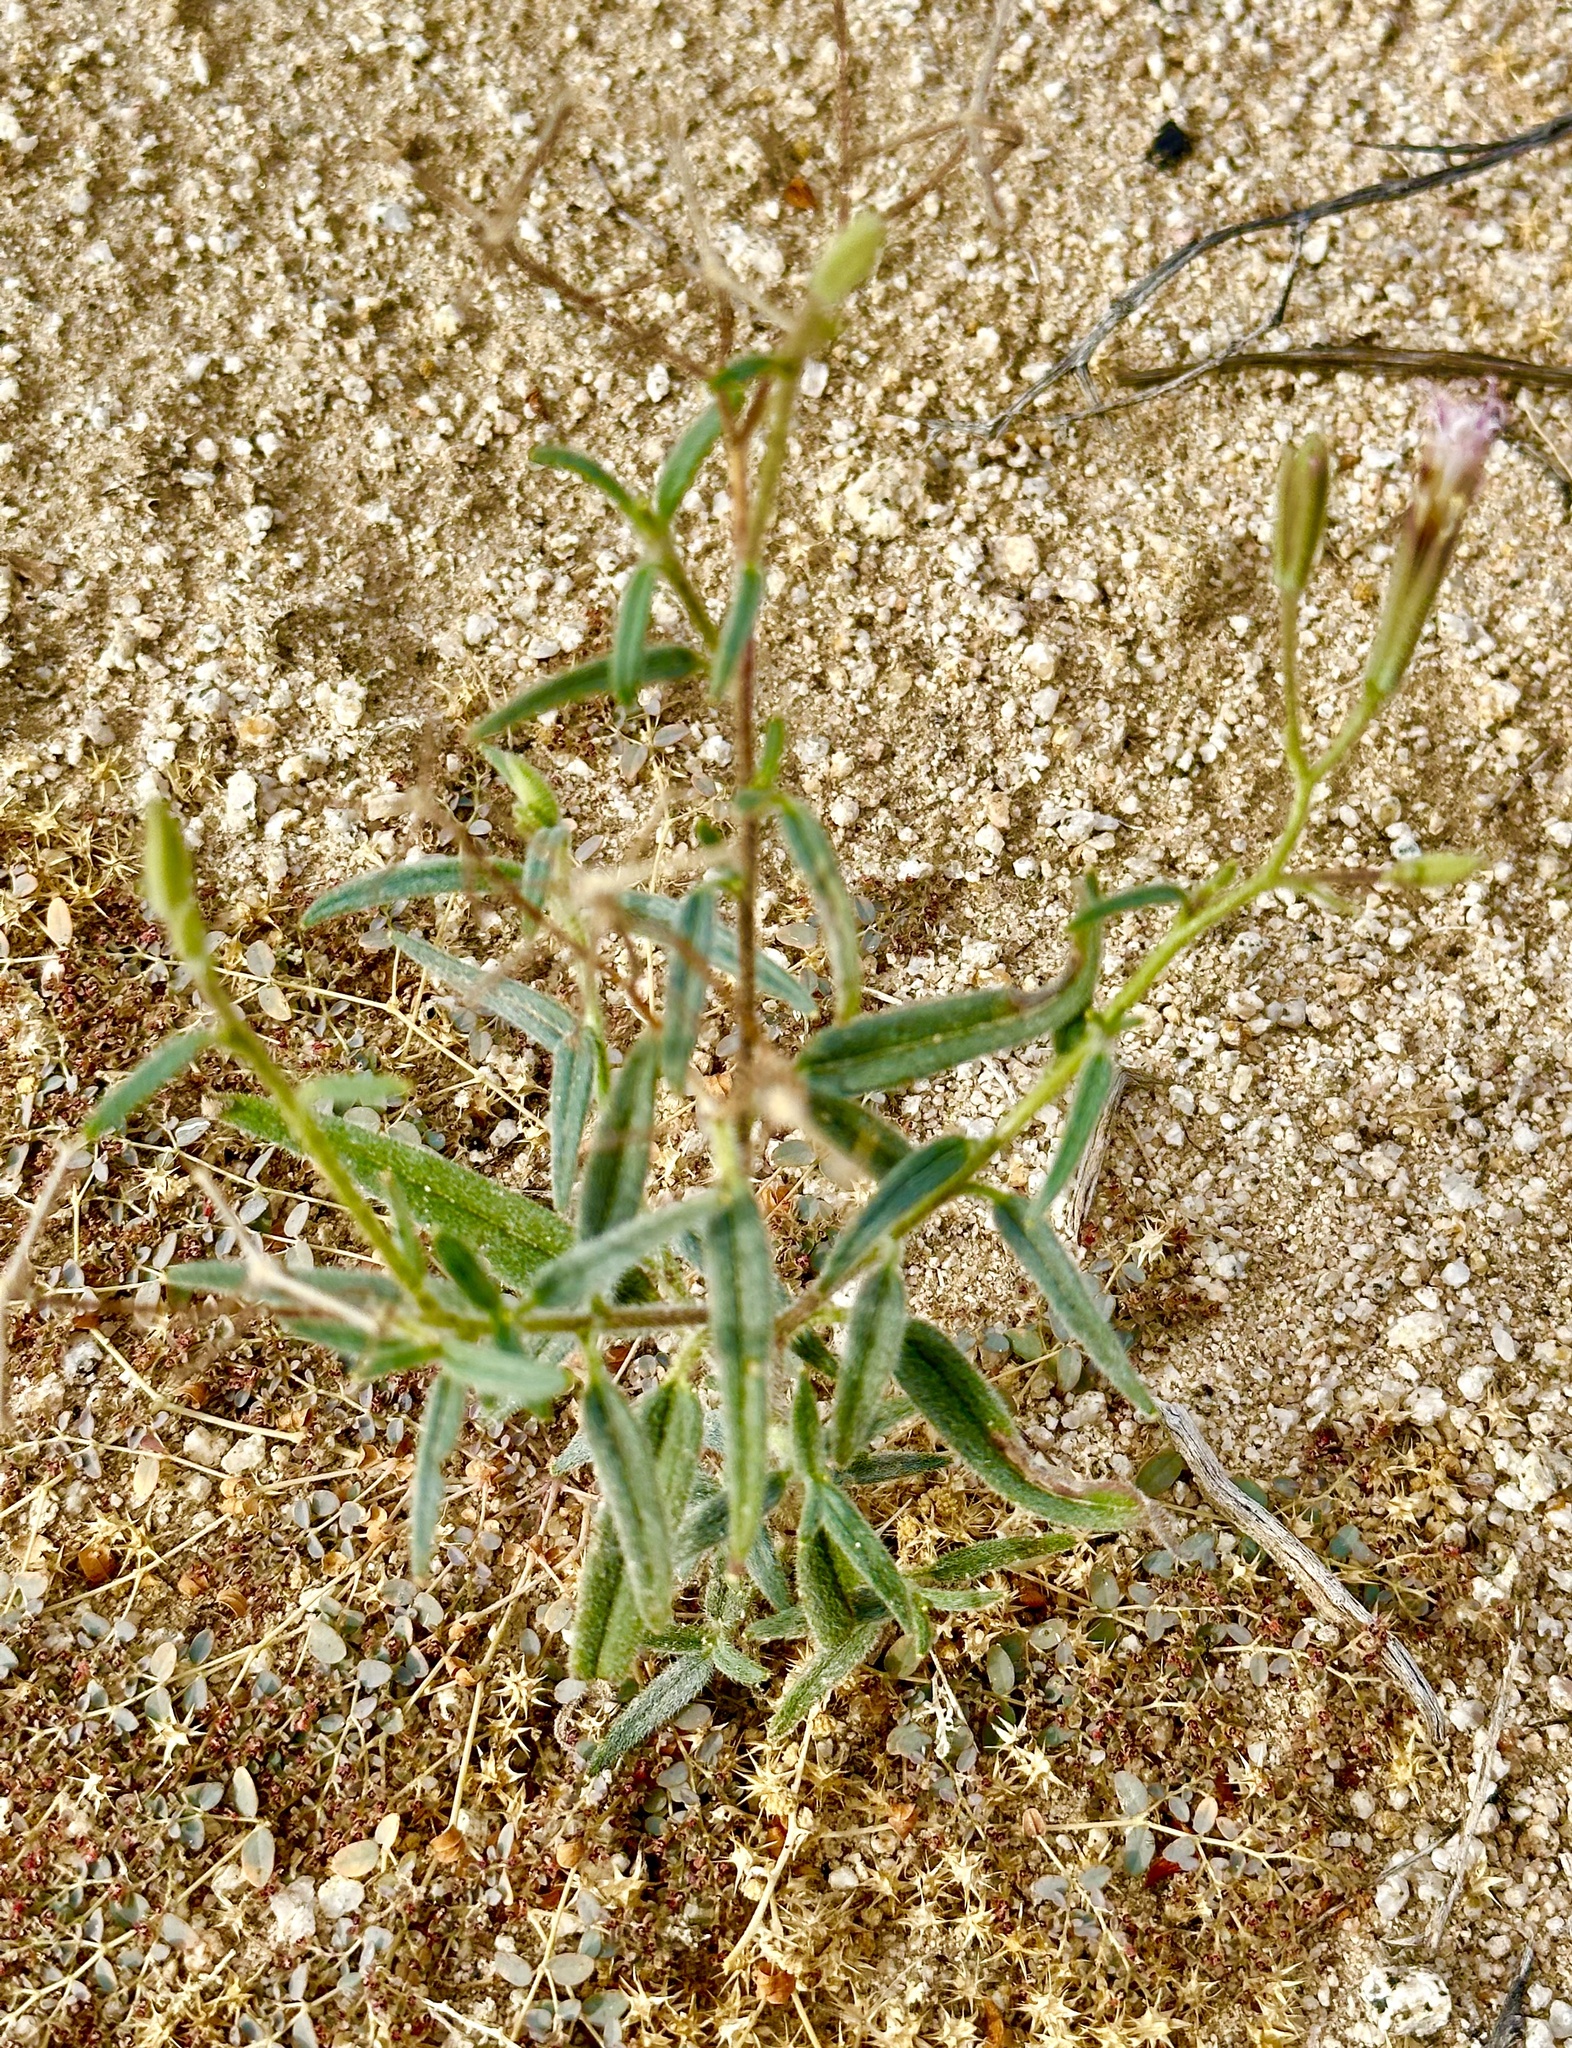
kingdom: Plantae
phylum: Tracheophyta
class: Magnoliopsida
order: Asterales
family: Asteraceae
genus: Palafoxia
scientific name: Palafoxia arida
